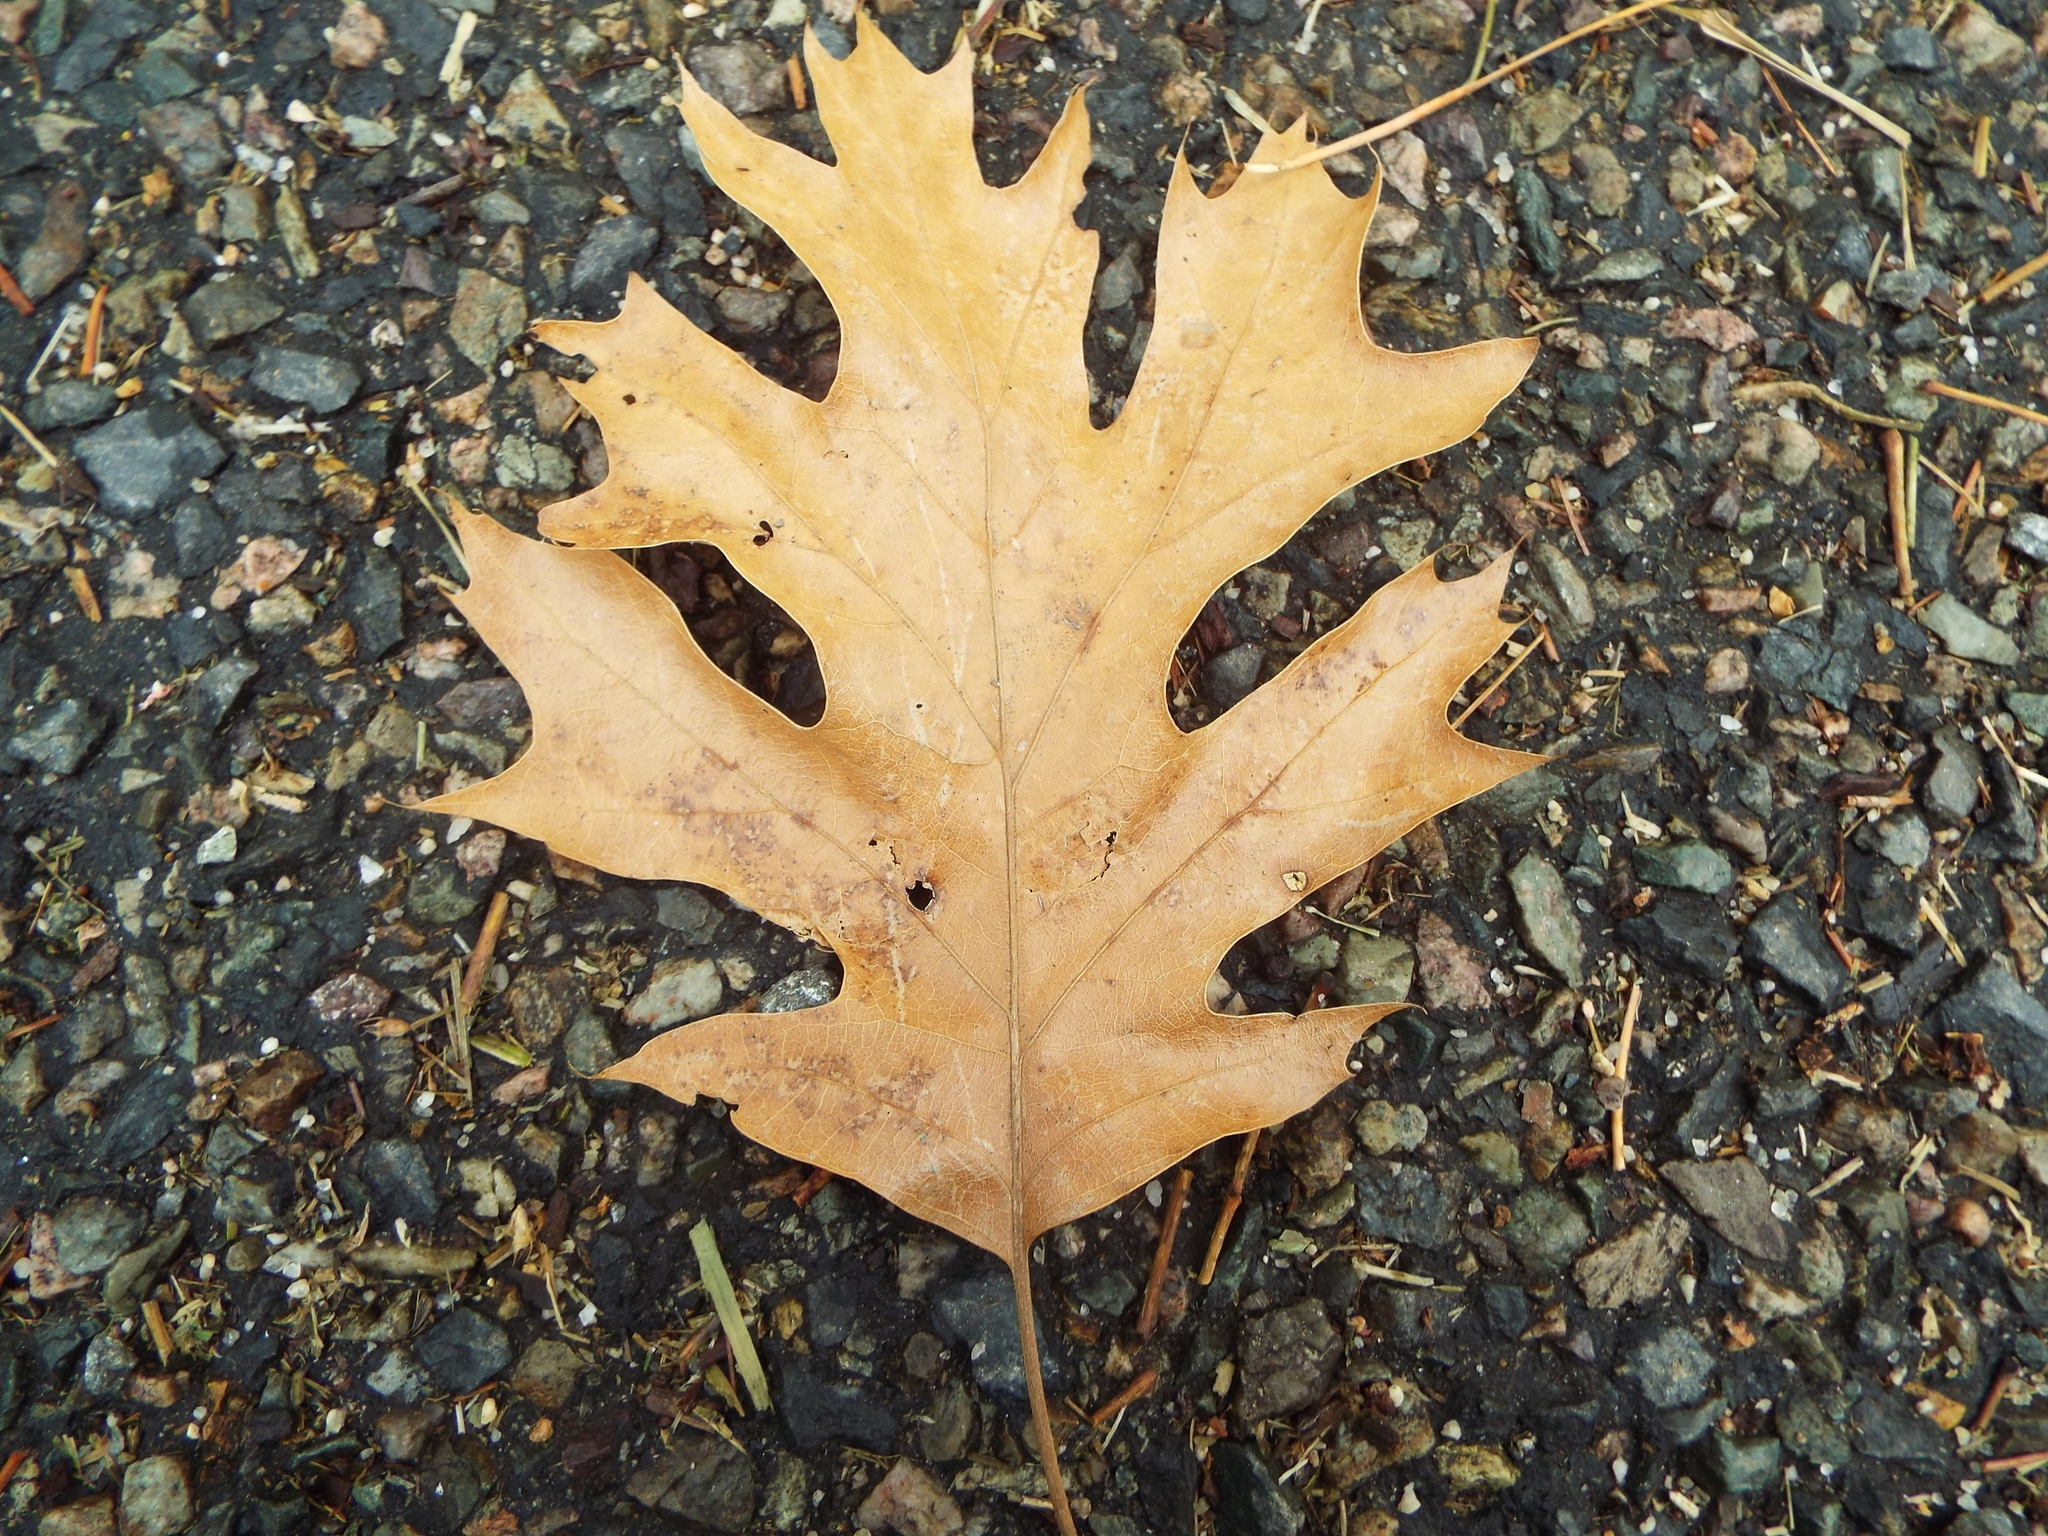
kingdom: Plantae
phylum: Tracheophyta
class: Magnoliopsida
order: Fagales
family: Fagaceae
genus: Quercus
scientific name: Quercus rubra
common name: Red oak
